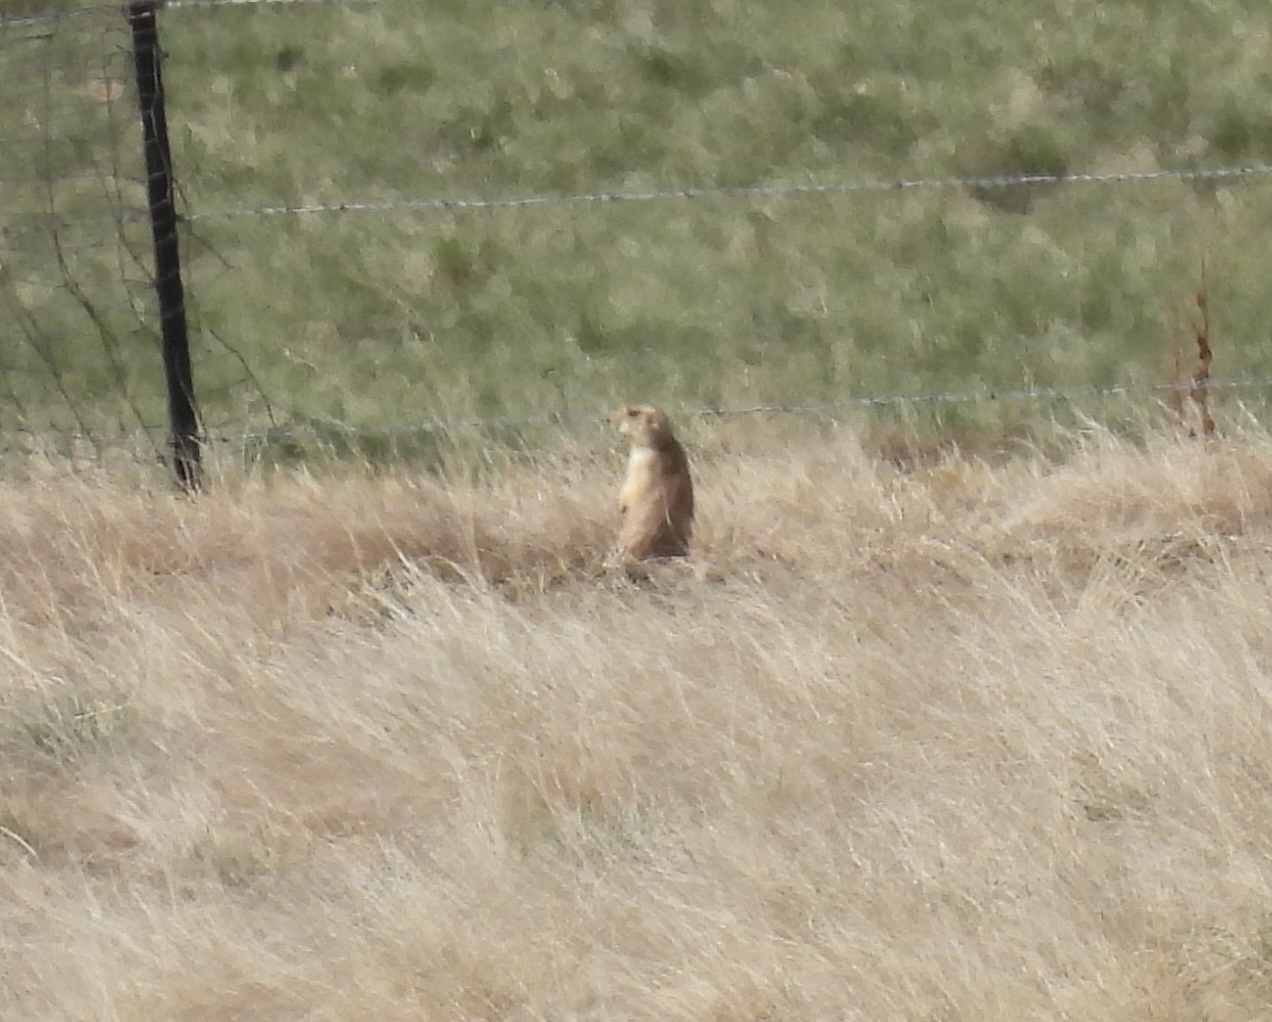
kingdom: Animalia
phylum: Chordata
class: Mammalia
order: Rodentia
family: Sciuridae
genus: Cynomys
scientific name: Cynomys ludovicianus
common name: Black-tailed prairie dog
